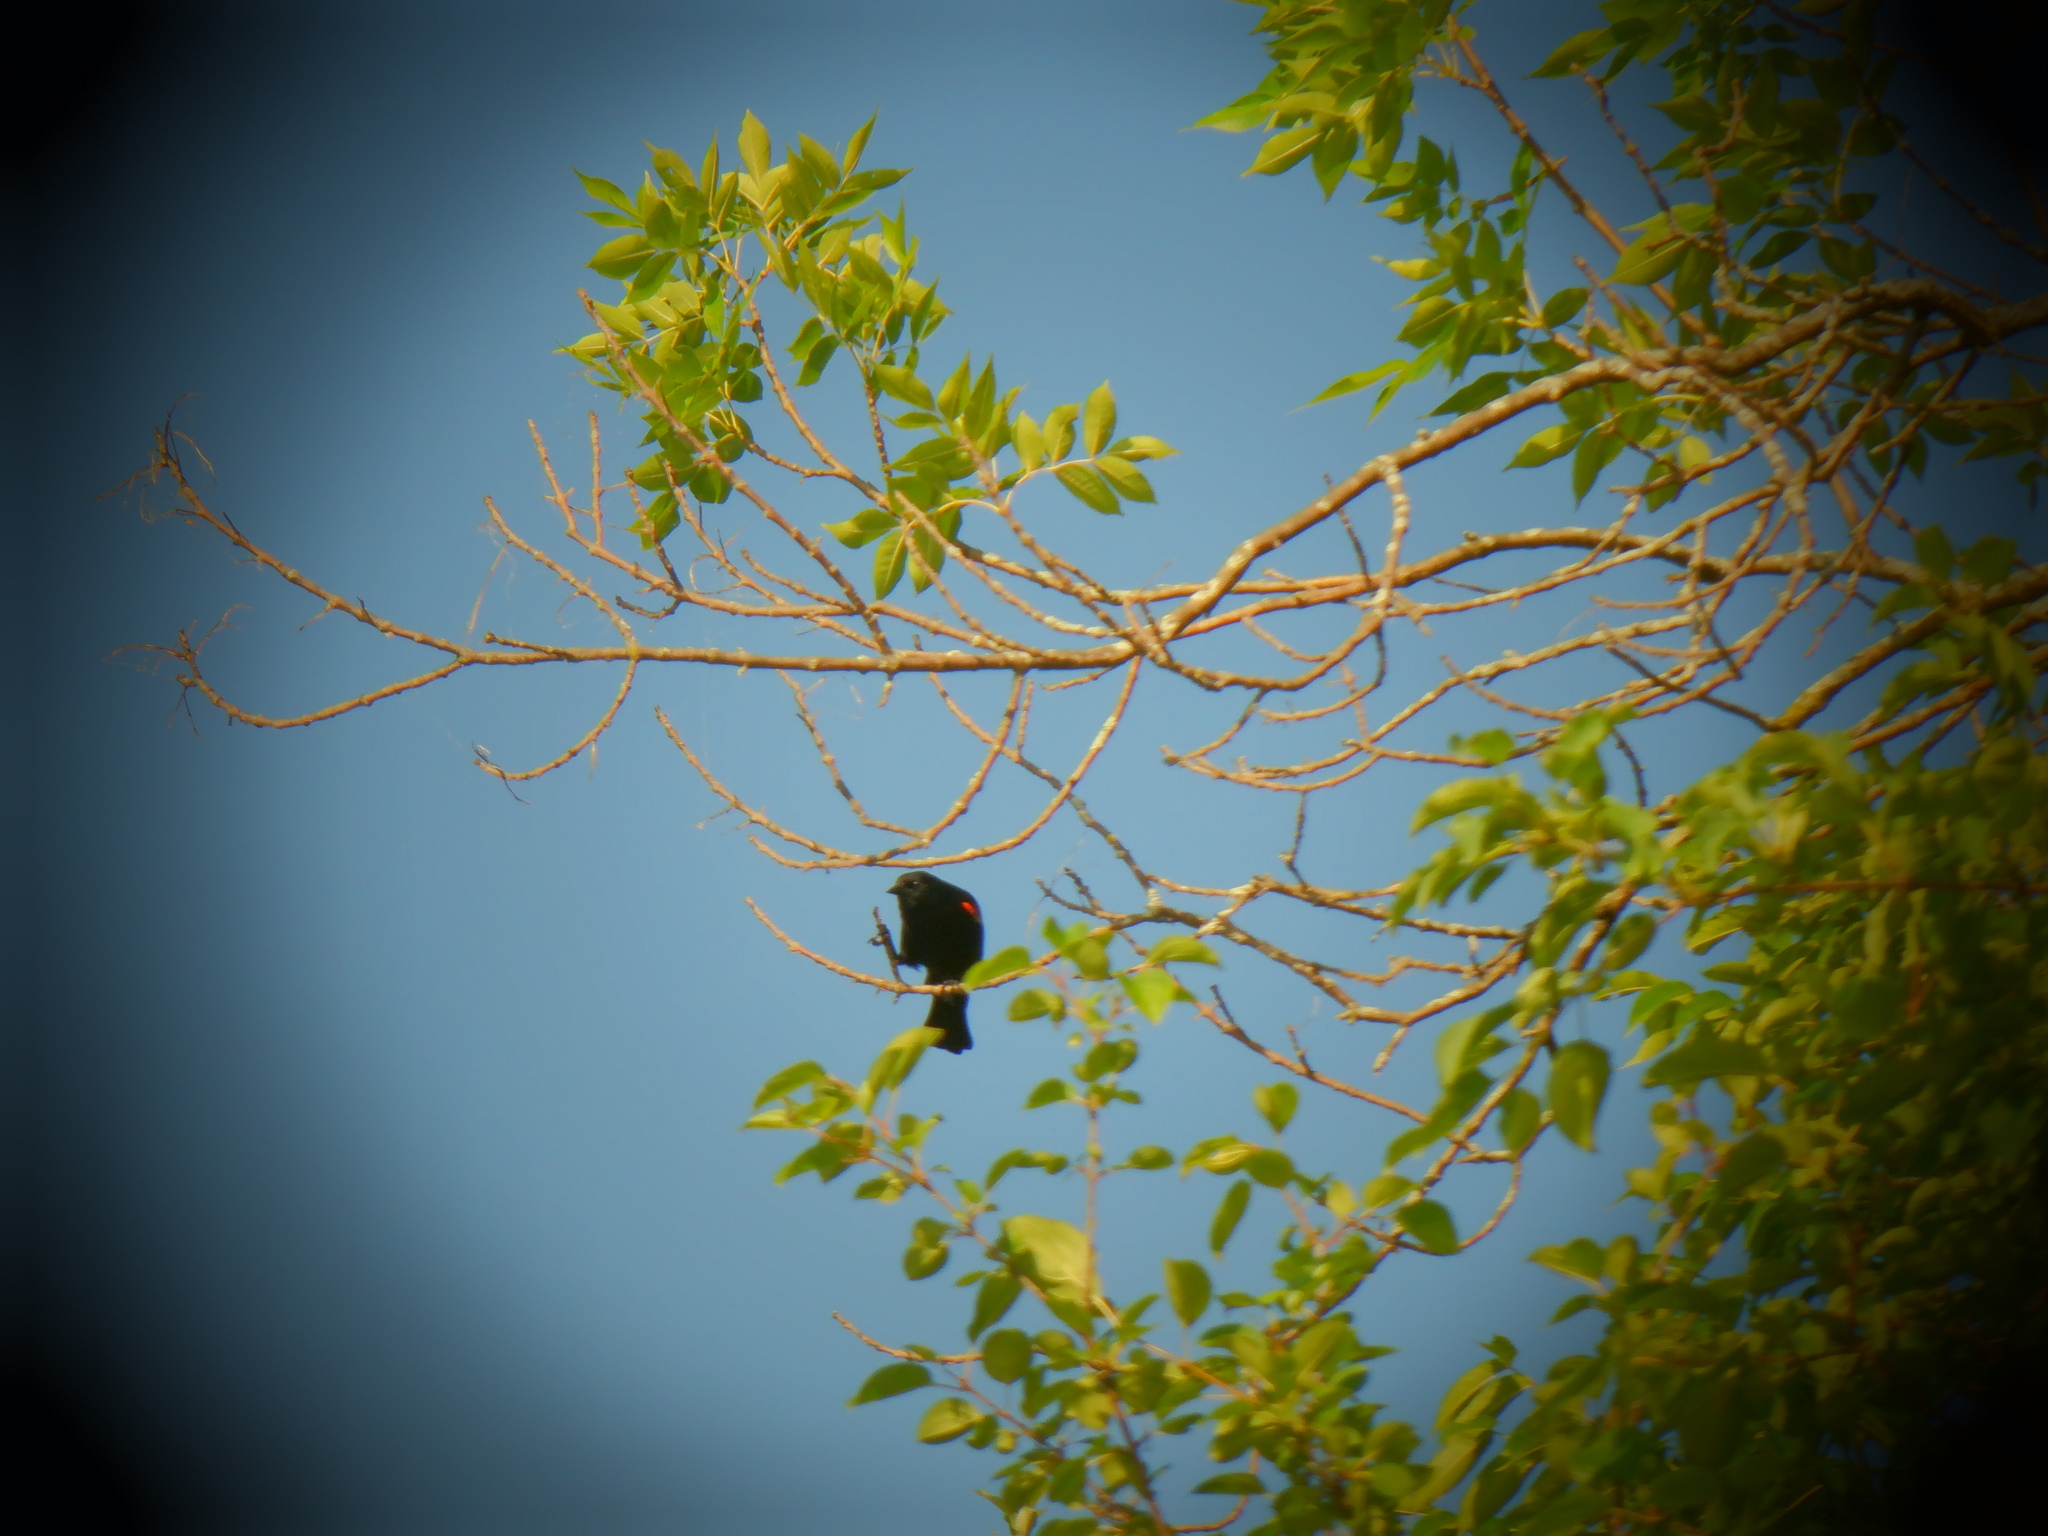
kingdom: Animalia
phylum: Chordata
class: Aves
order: Passeriformes
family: Icteridae
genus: Agelaius
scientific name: Agelaius phoeniceus
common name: Red-winged blackbird
